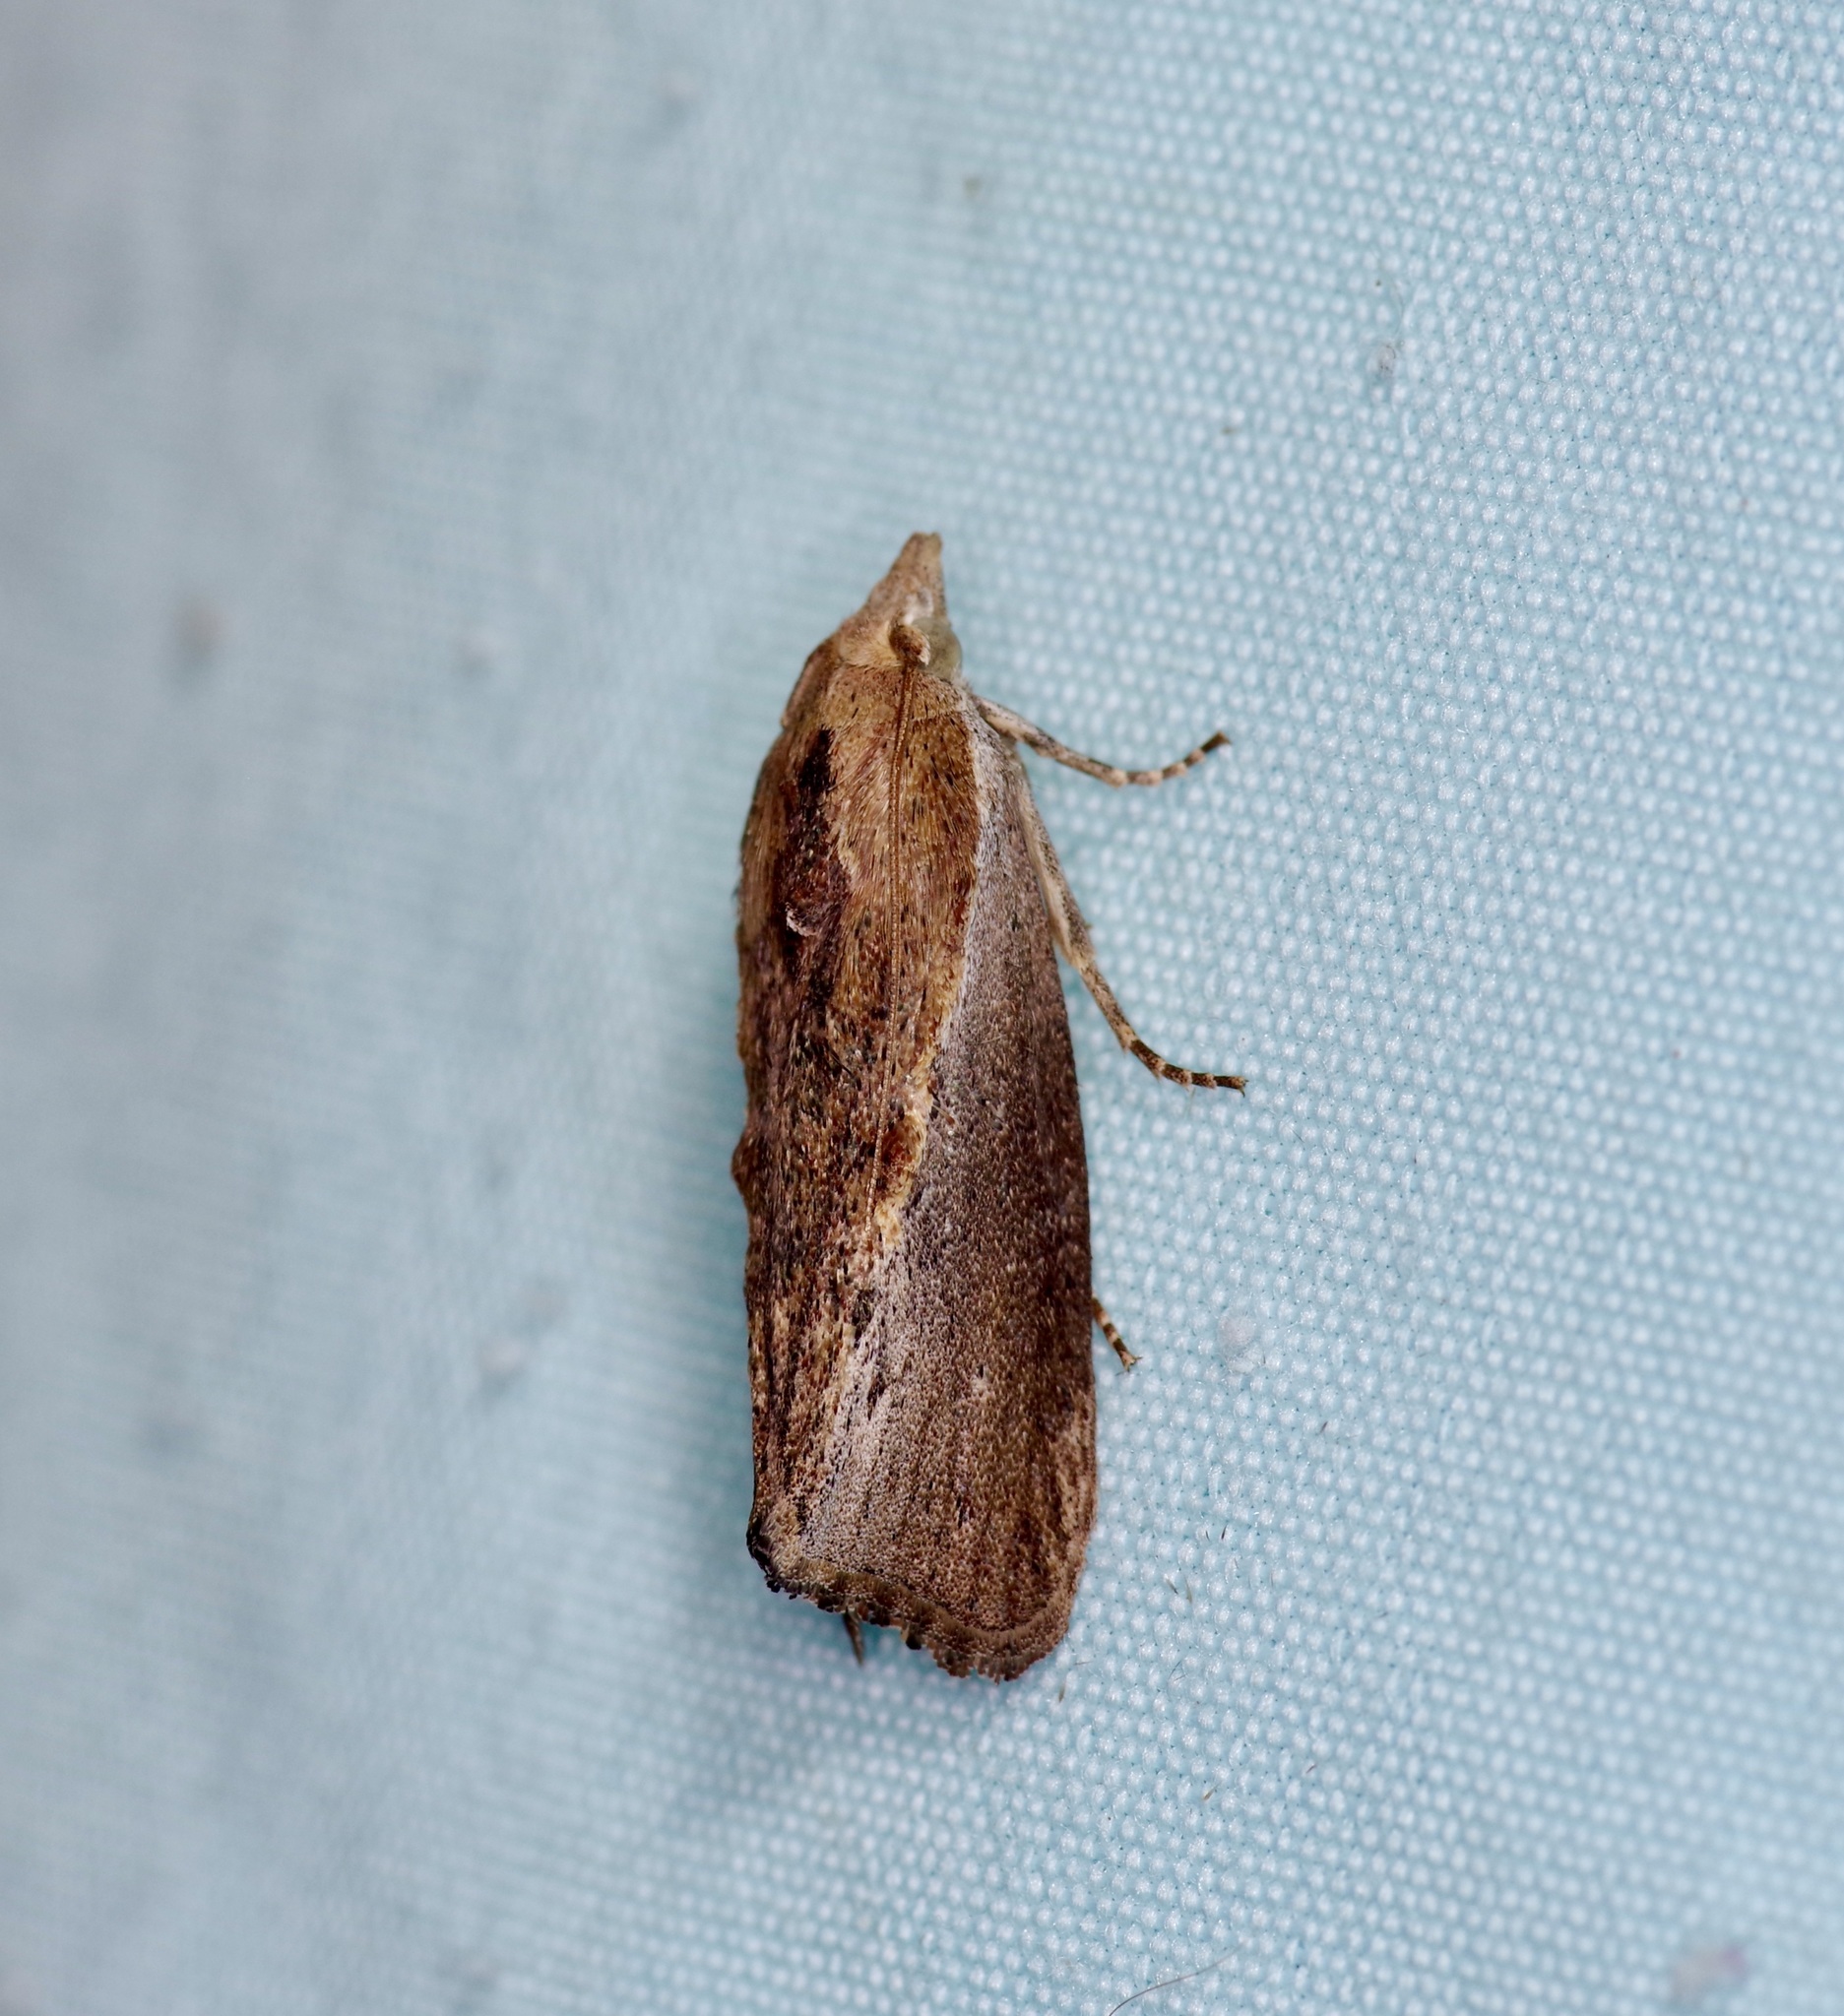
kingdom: Animalia
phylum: Arthropoda
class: Insecta
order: Lepidoptera
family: Pyralidae
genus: Galleria
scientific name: Galleria mellonella
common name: Greater wax moth
